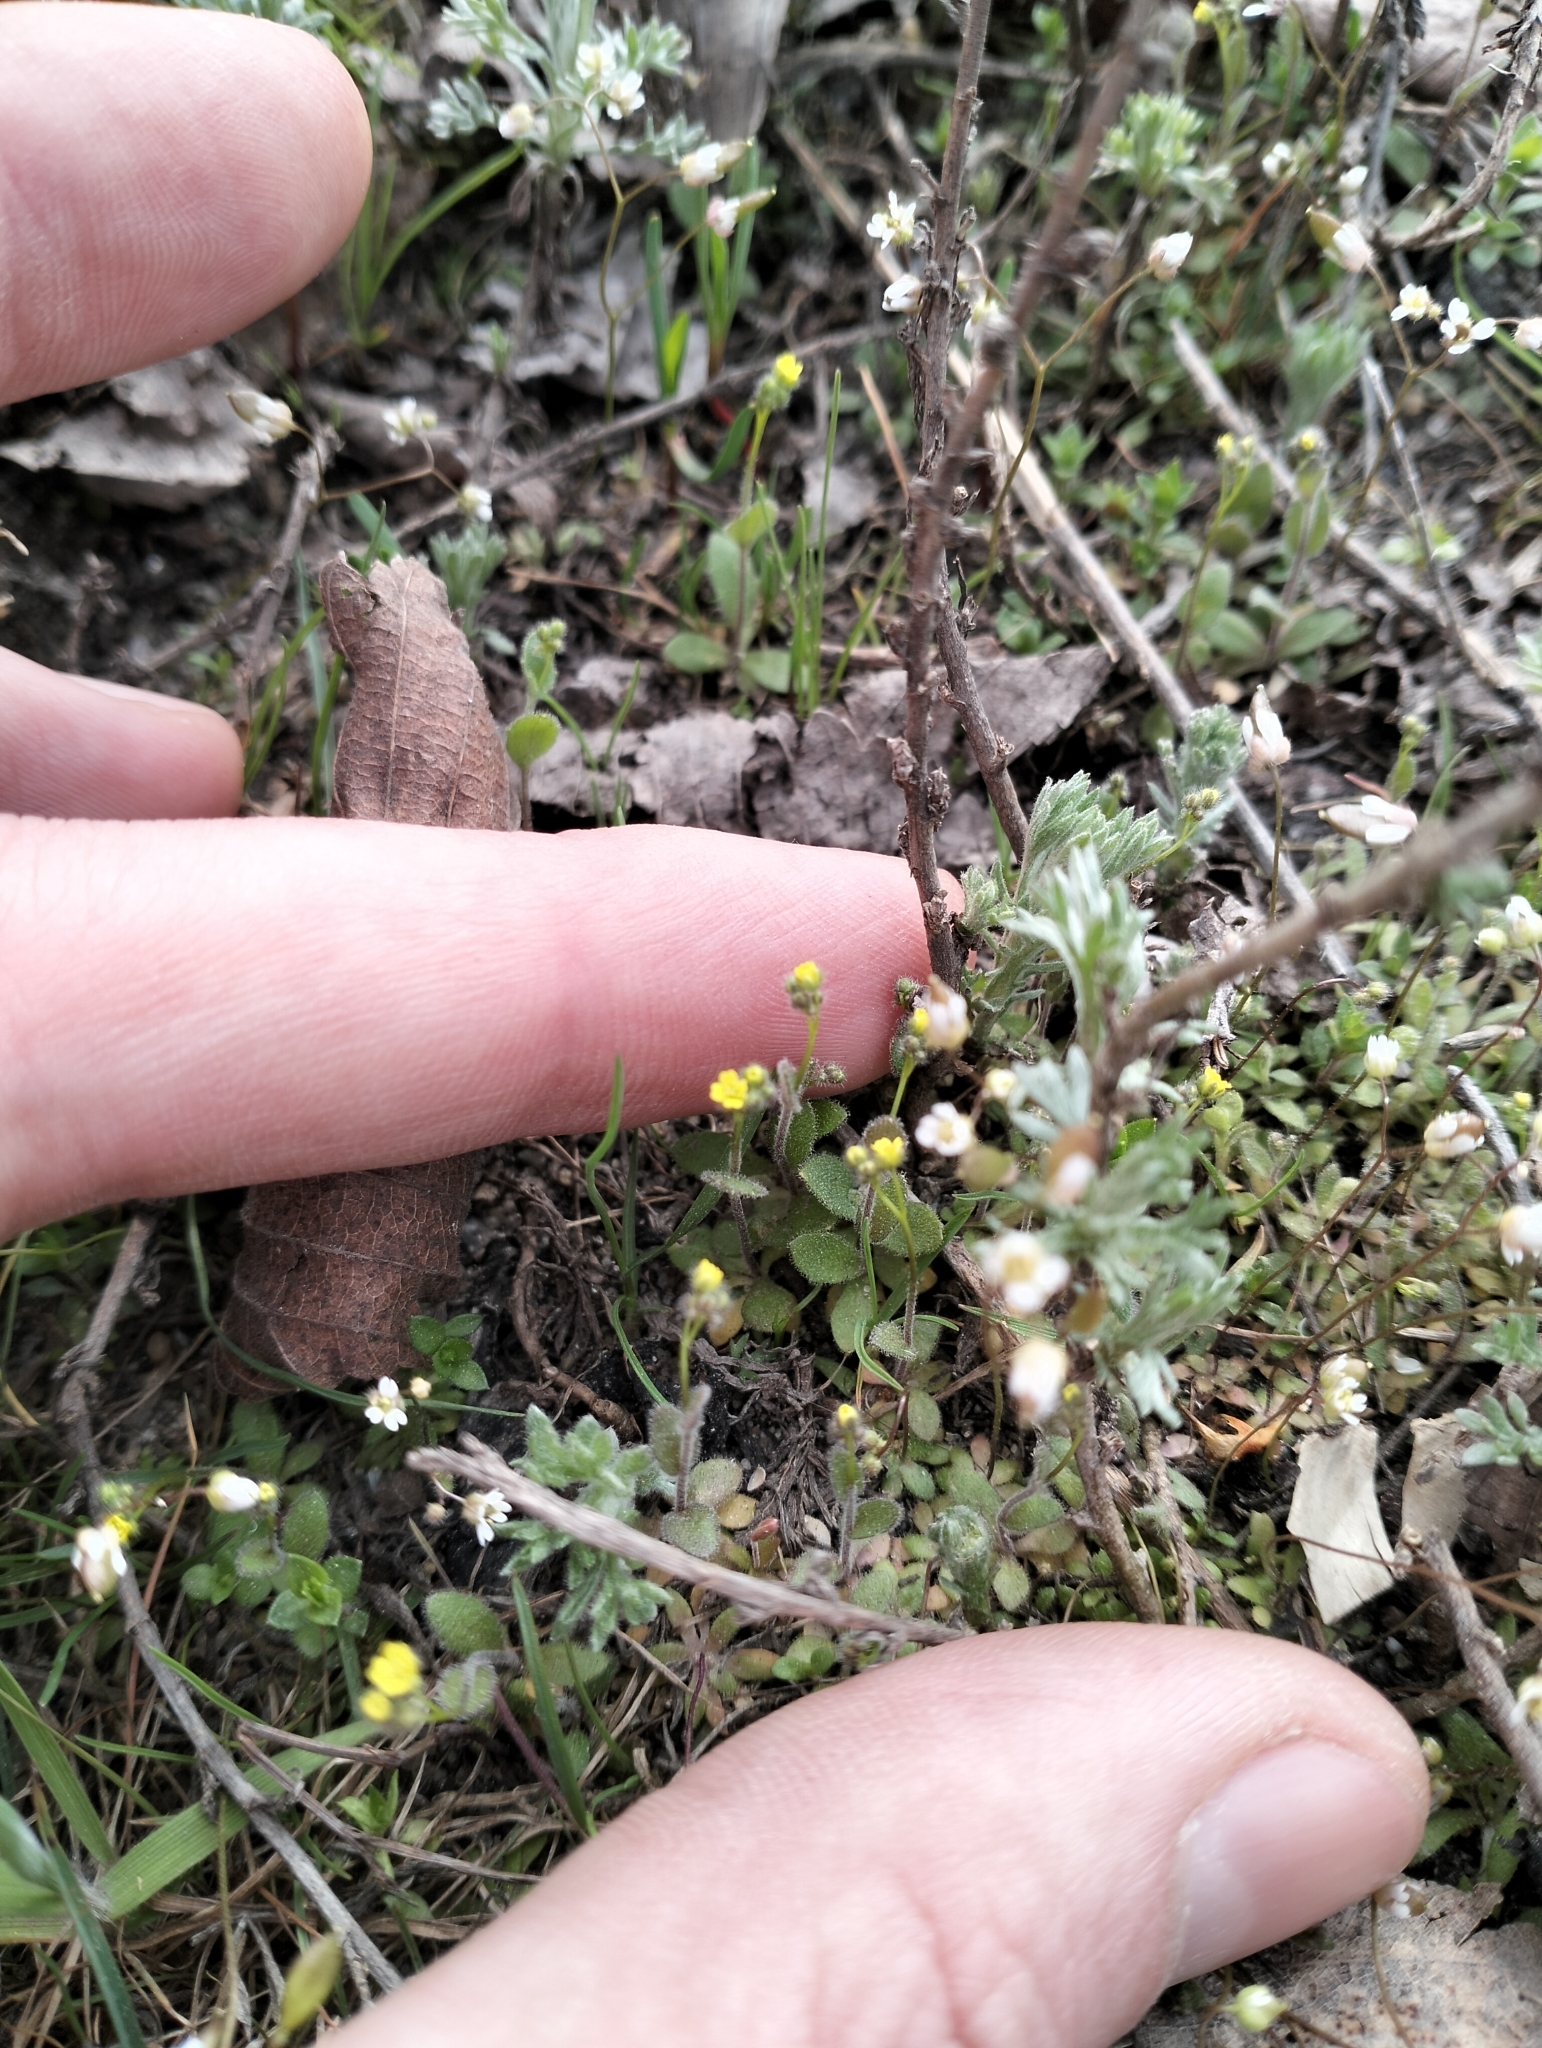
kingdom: Plantae
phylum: Tracheophyta
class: Magnoliopsida
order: Brassicales
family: Brassicaceae
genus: Draba
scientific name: Draba nemorosa
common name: Wood whitlow-grass
